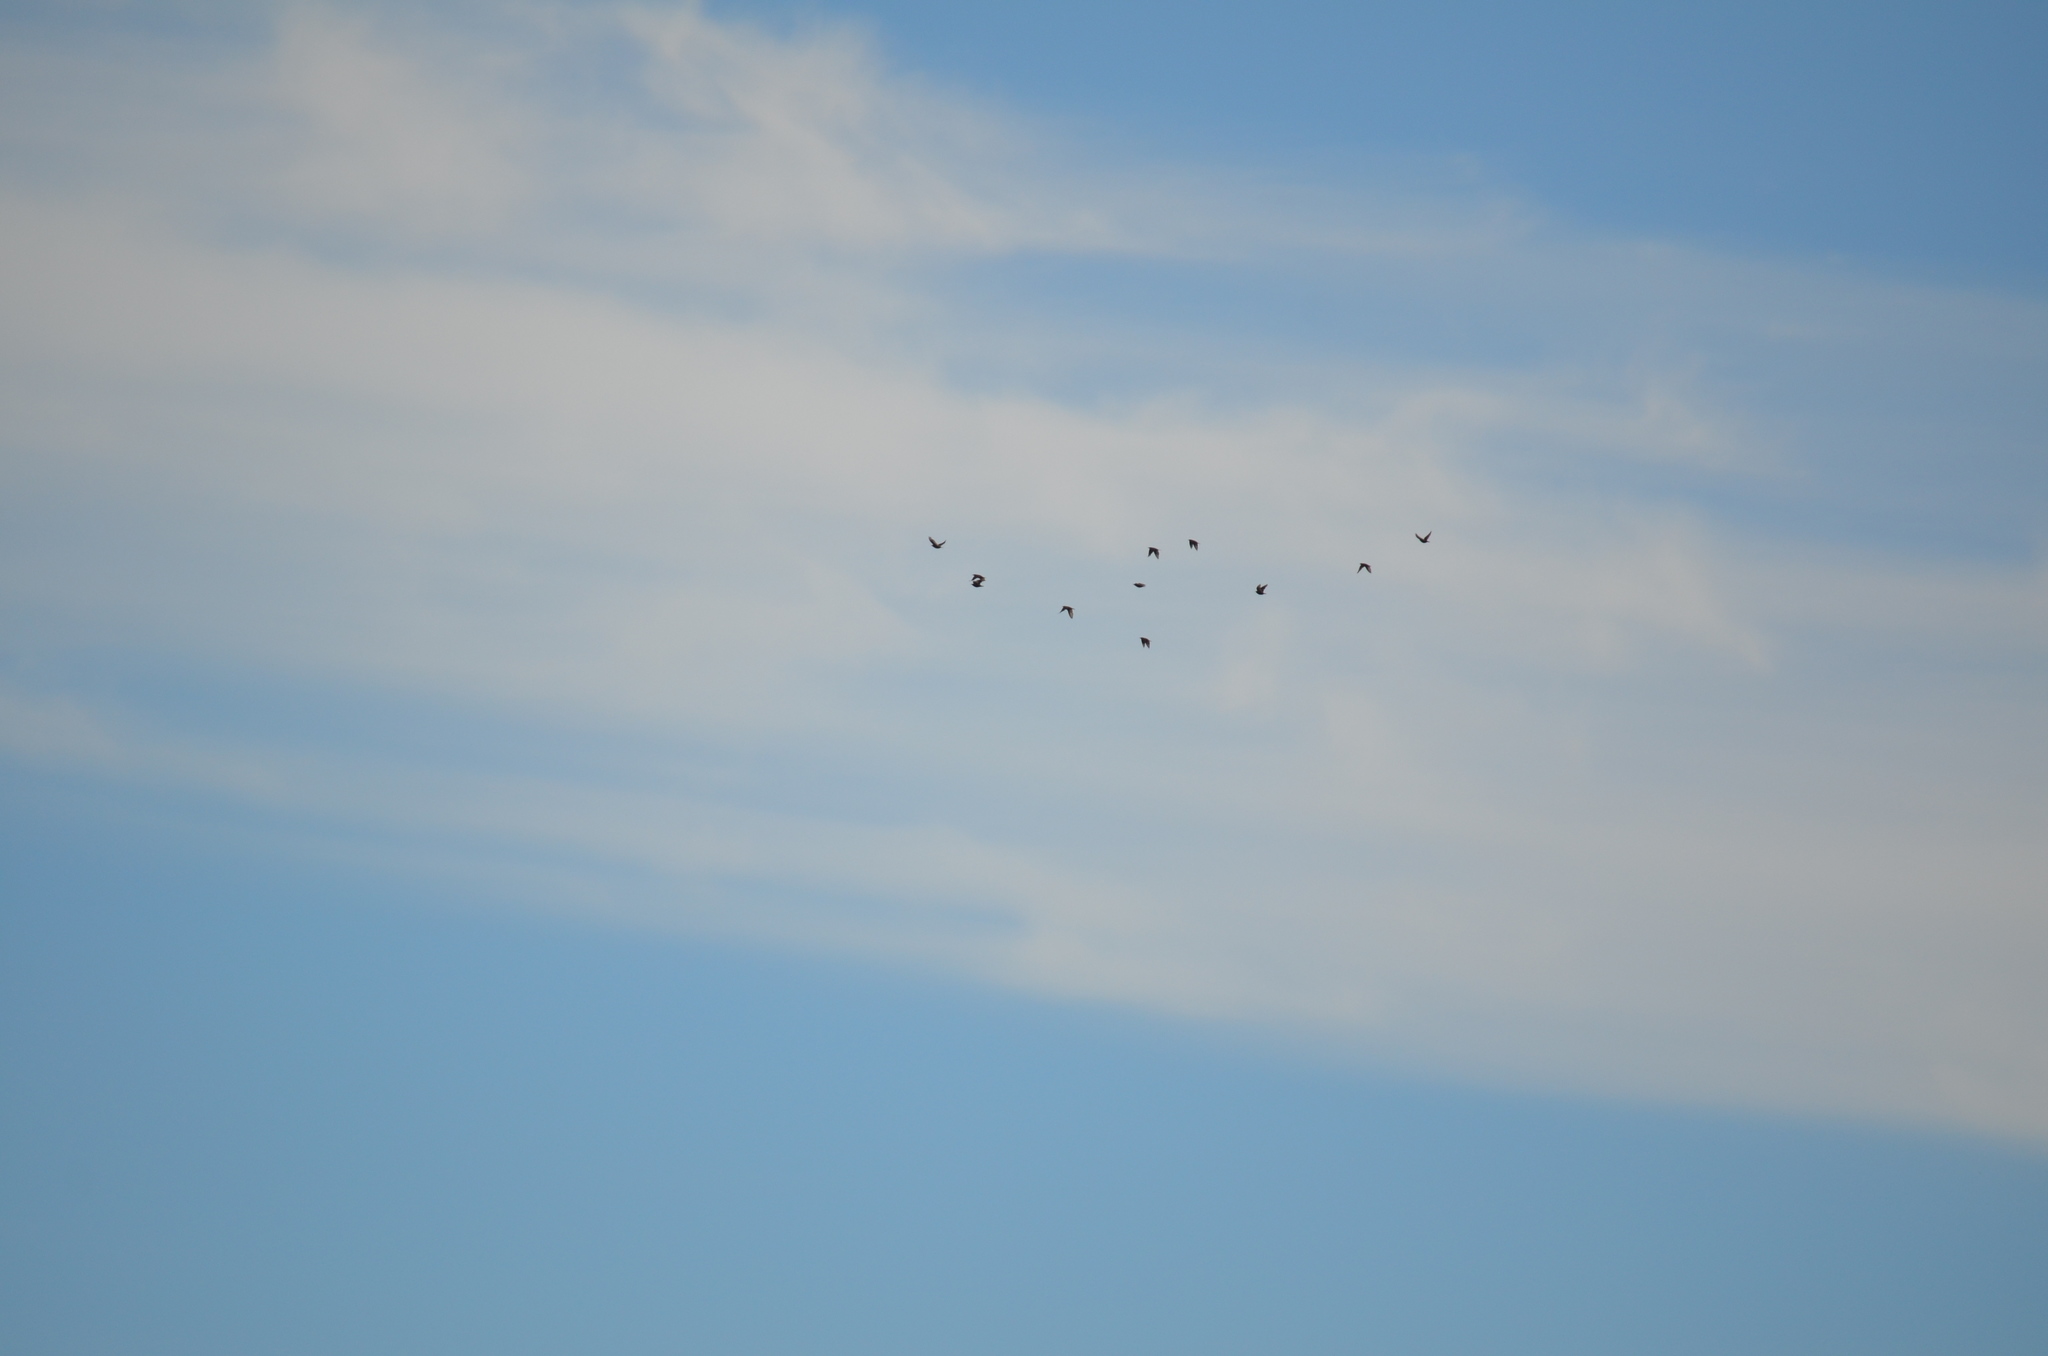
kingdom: Animalia
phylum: Chordata
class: Aves
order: Passeriformes
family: Sturnidae
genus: Sturnus
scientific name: Sturnus vulgaris
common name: Common starling
